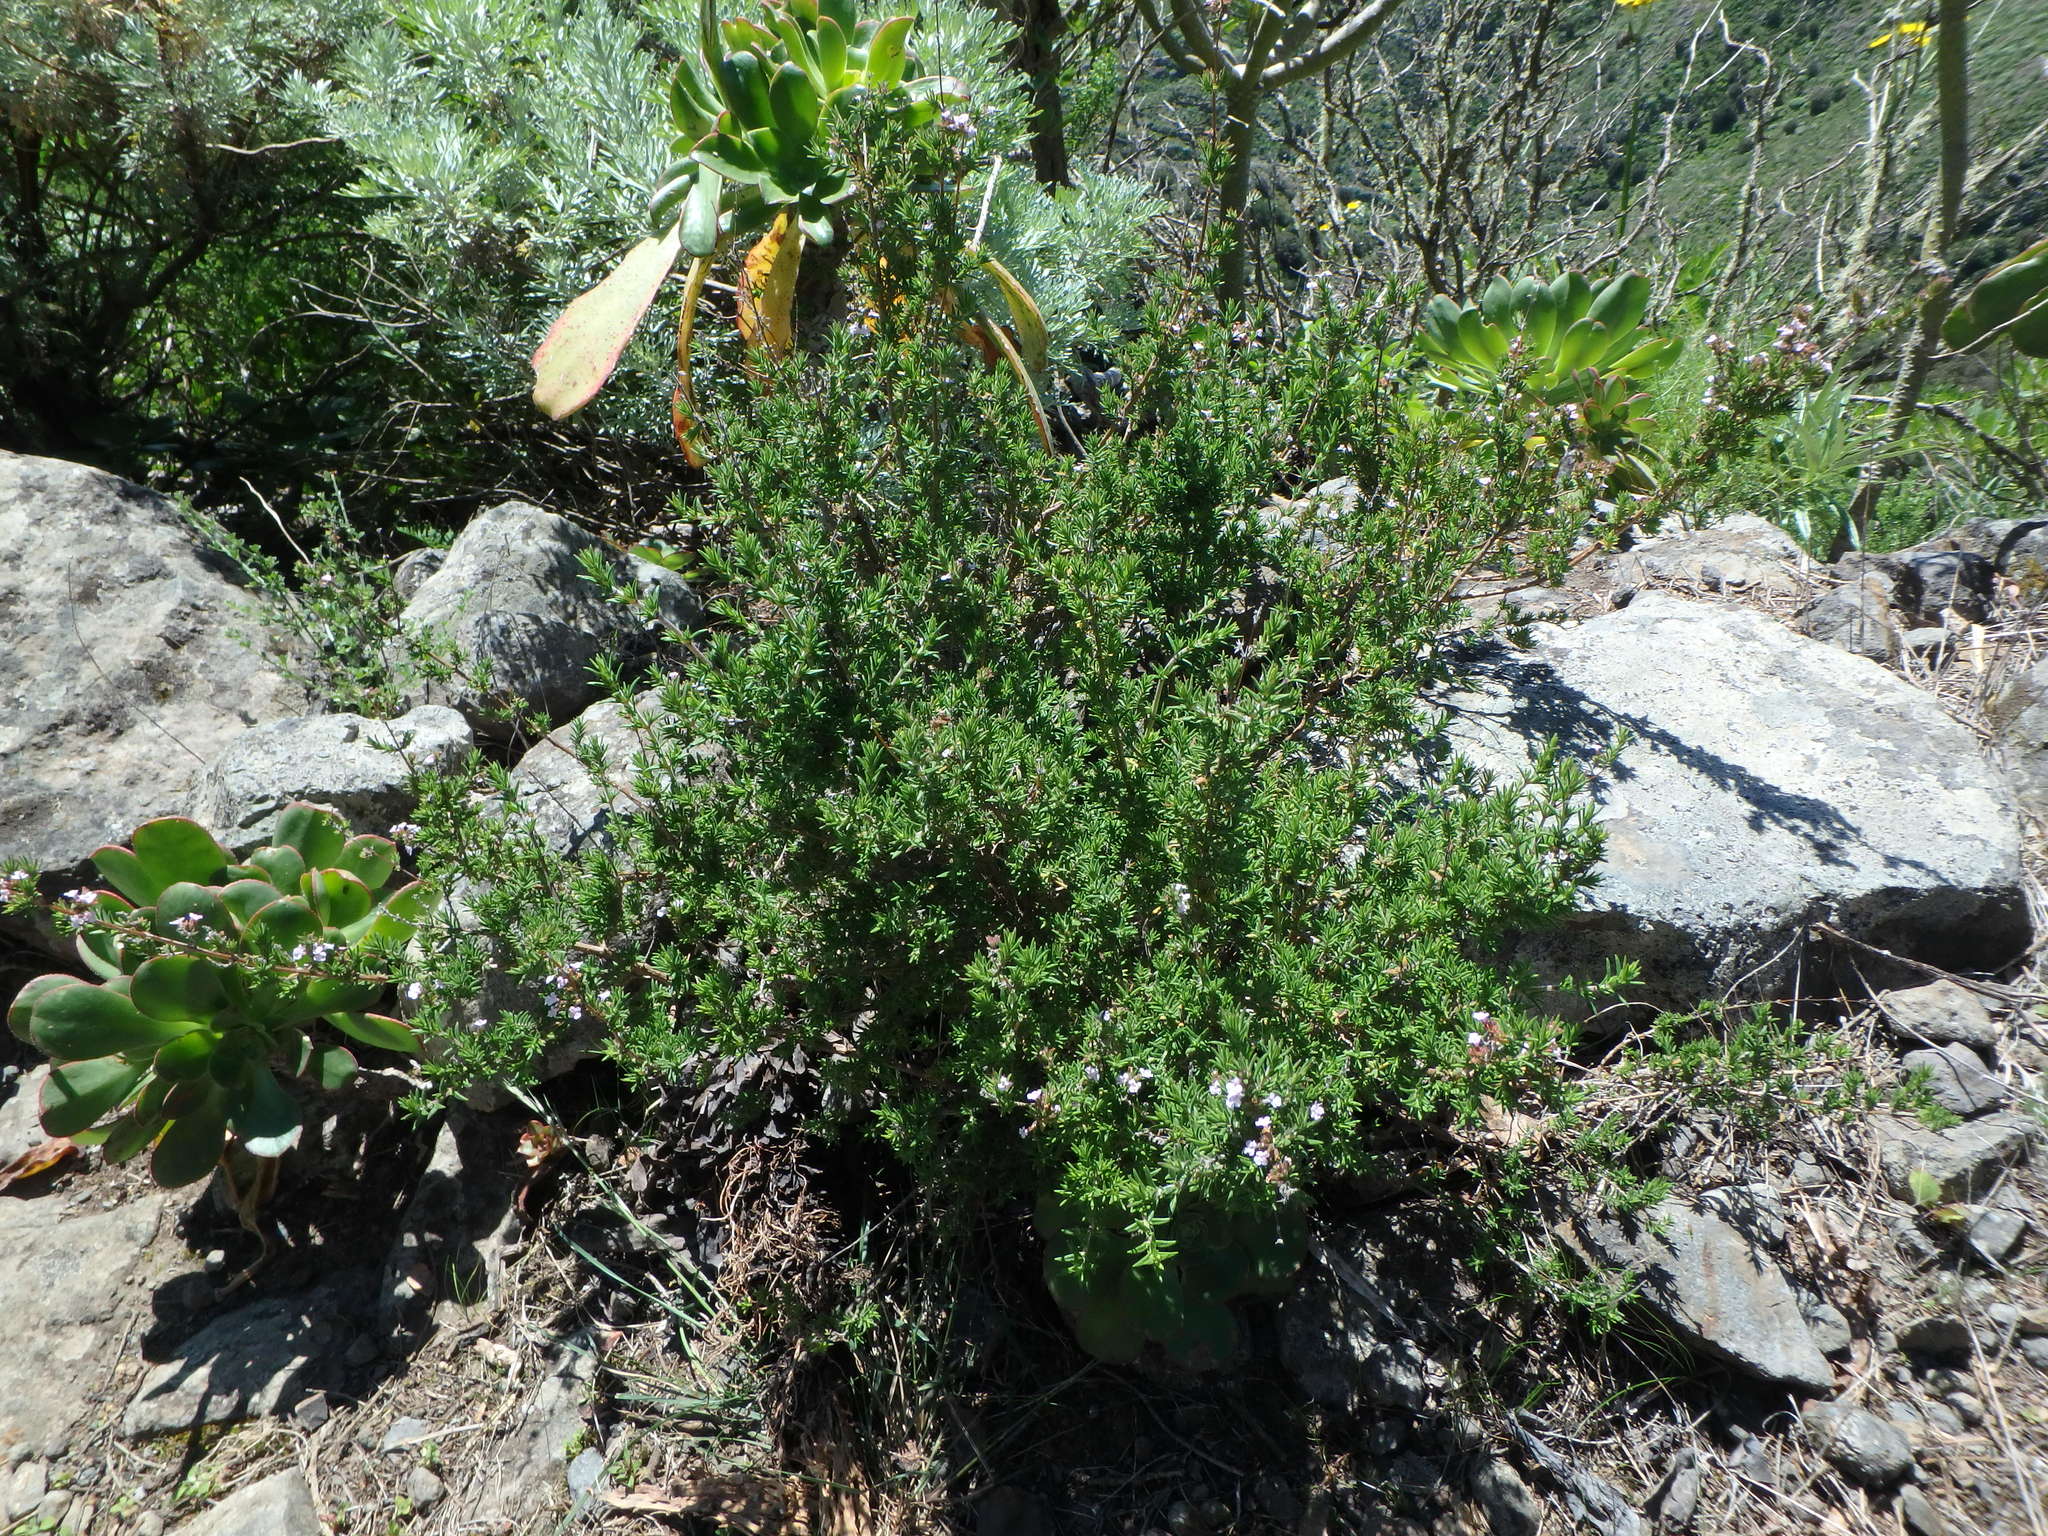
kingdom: Plantae
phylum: Tracheophyta
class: Magnoliopsida
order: Lamiales
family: Lamiaceae
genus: Micromeria
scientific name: Micromeria ericifolia
